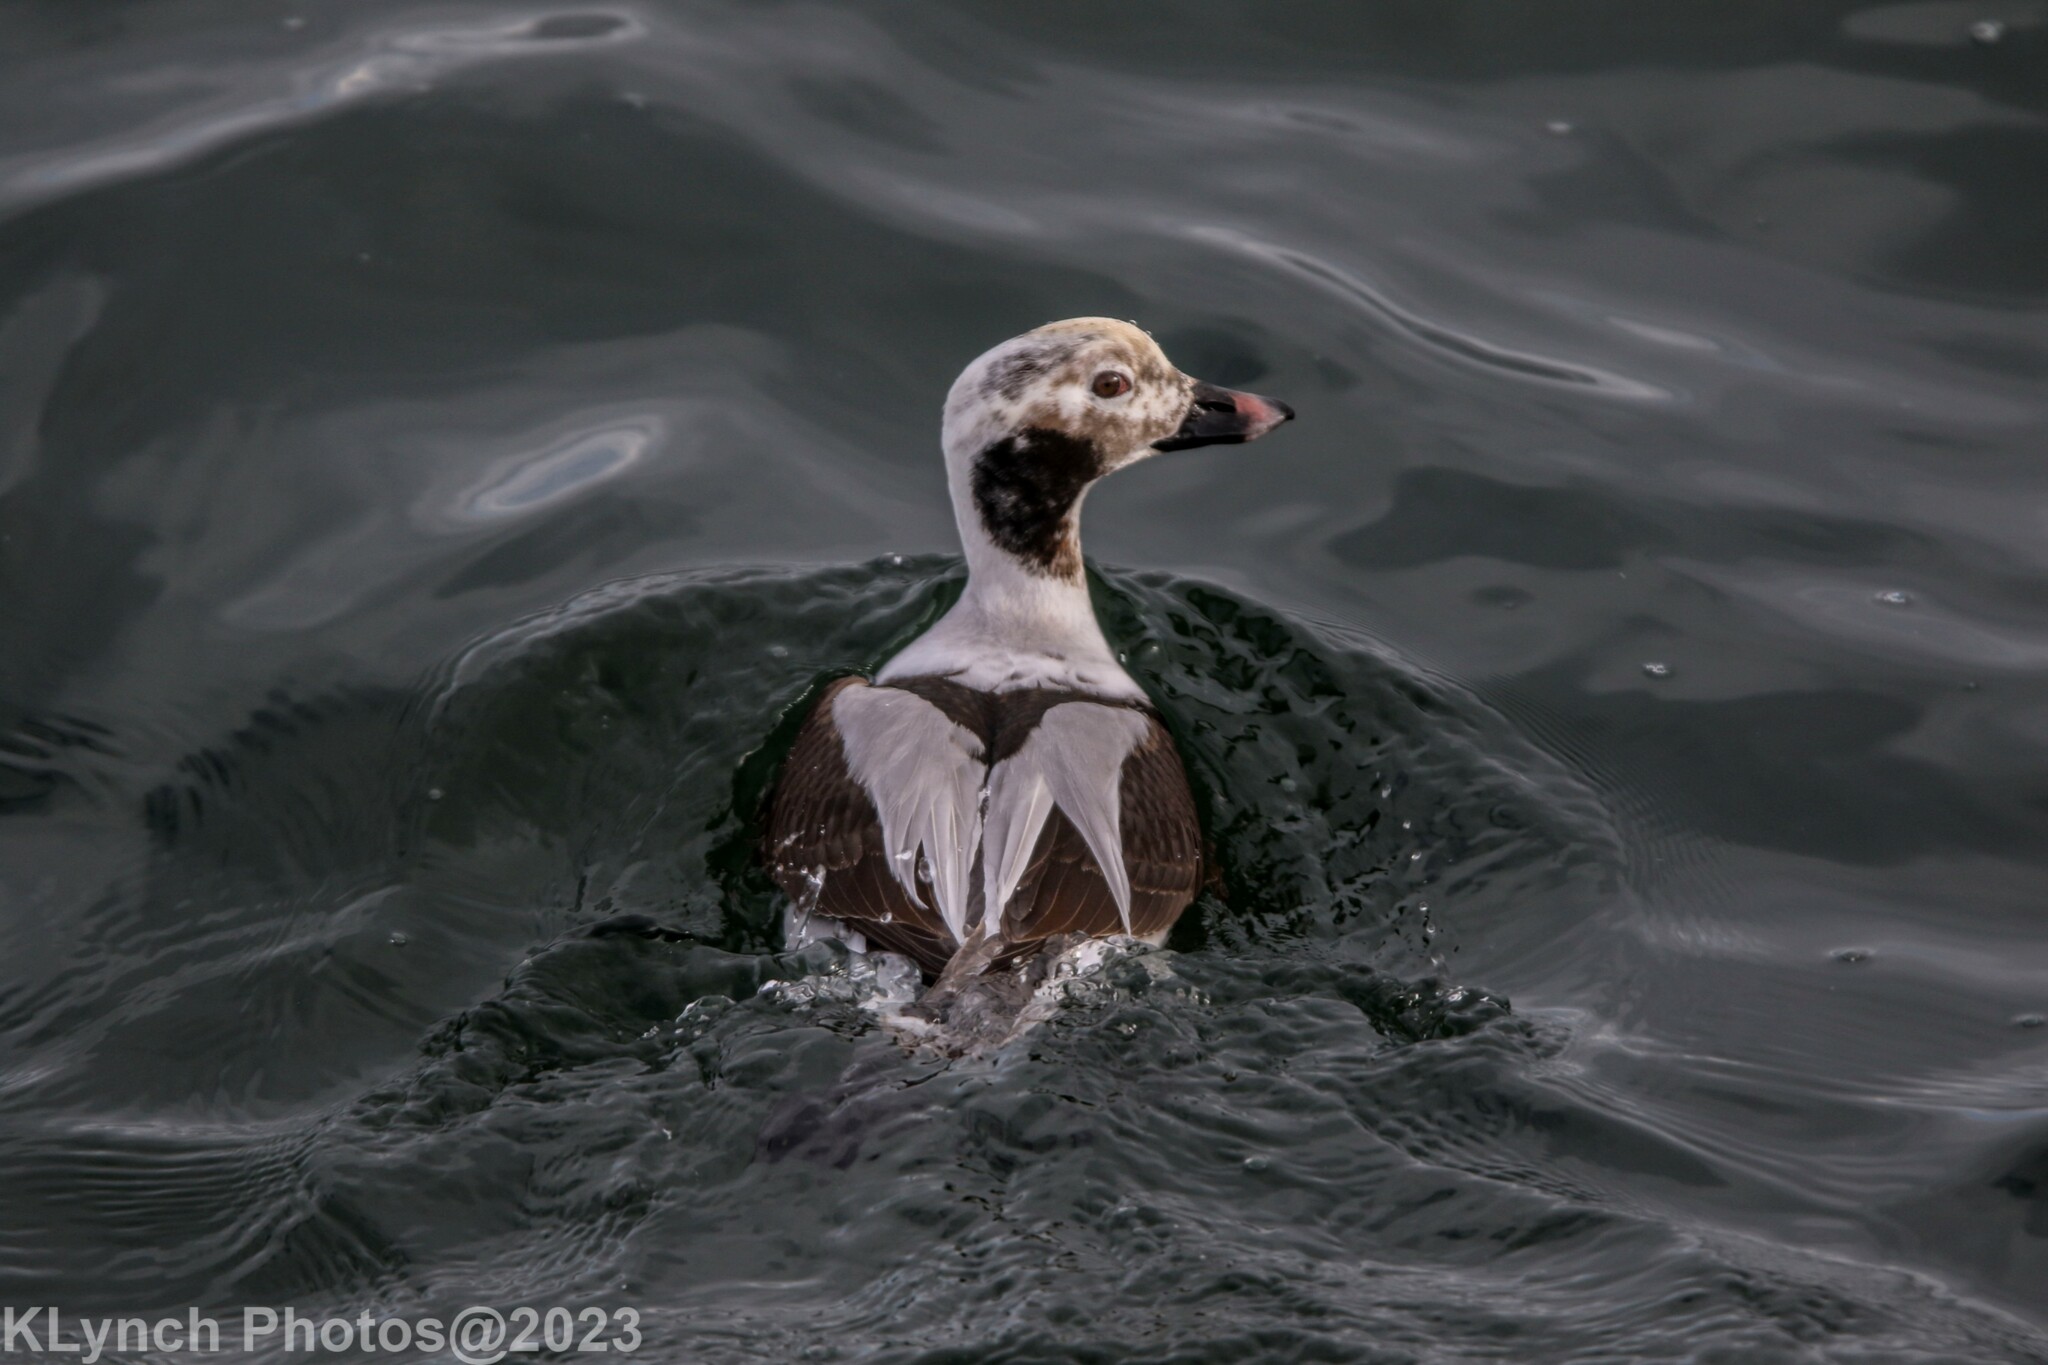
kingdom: Animalia
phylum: Chordata
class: Aves
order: Anseriformes
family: Anatidae
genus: Clangula
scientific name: Clangula hyemalis
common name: Long-tailed duck
